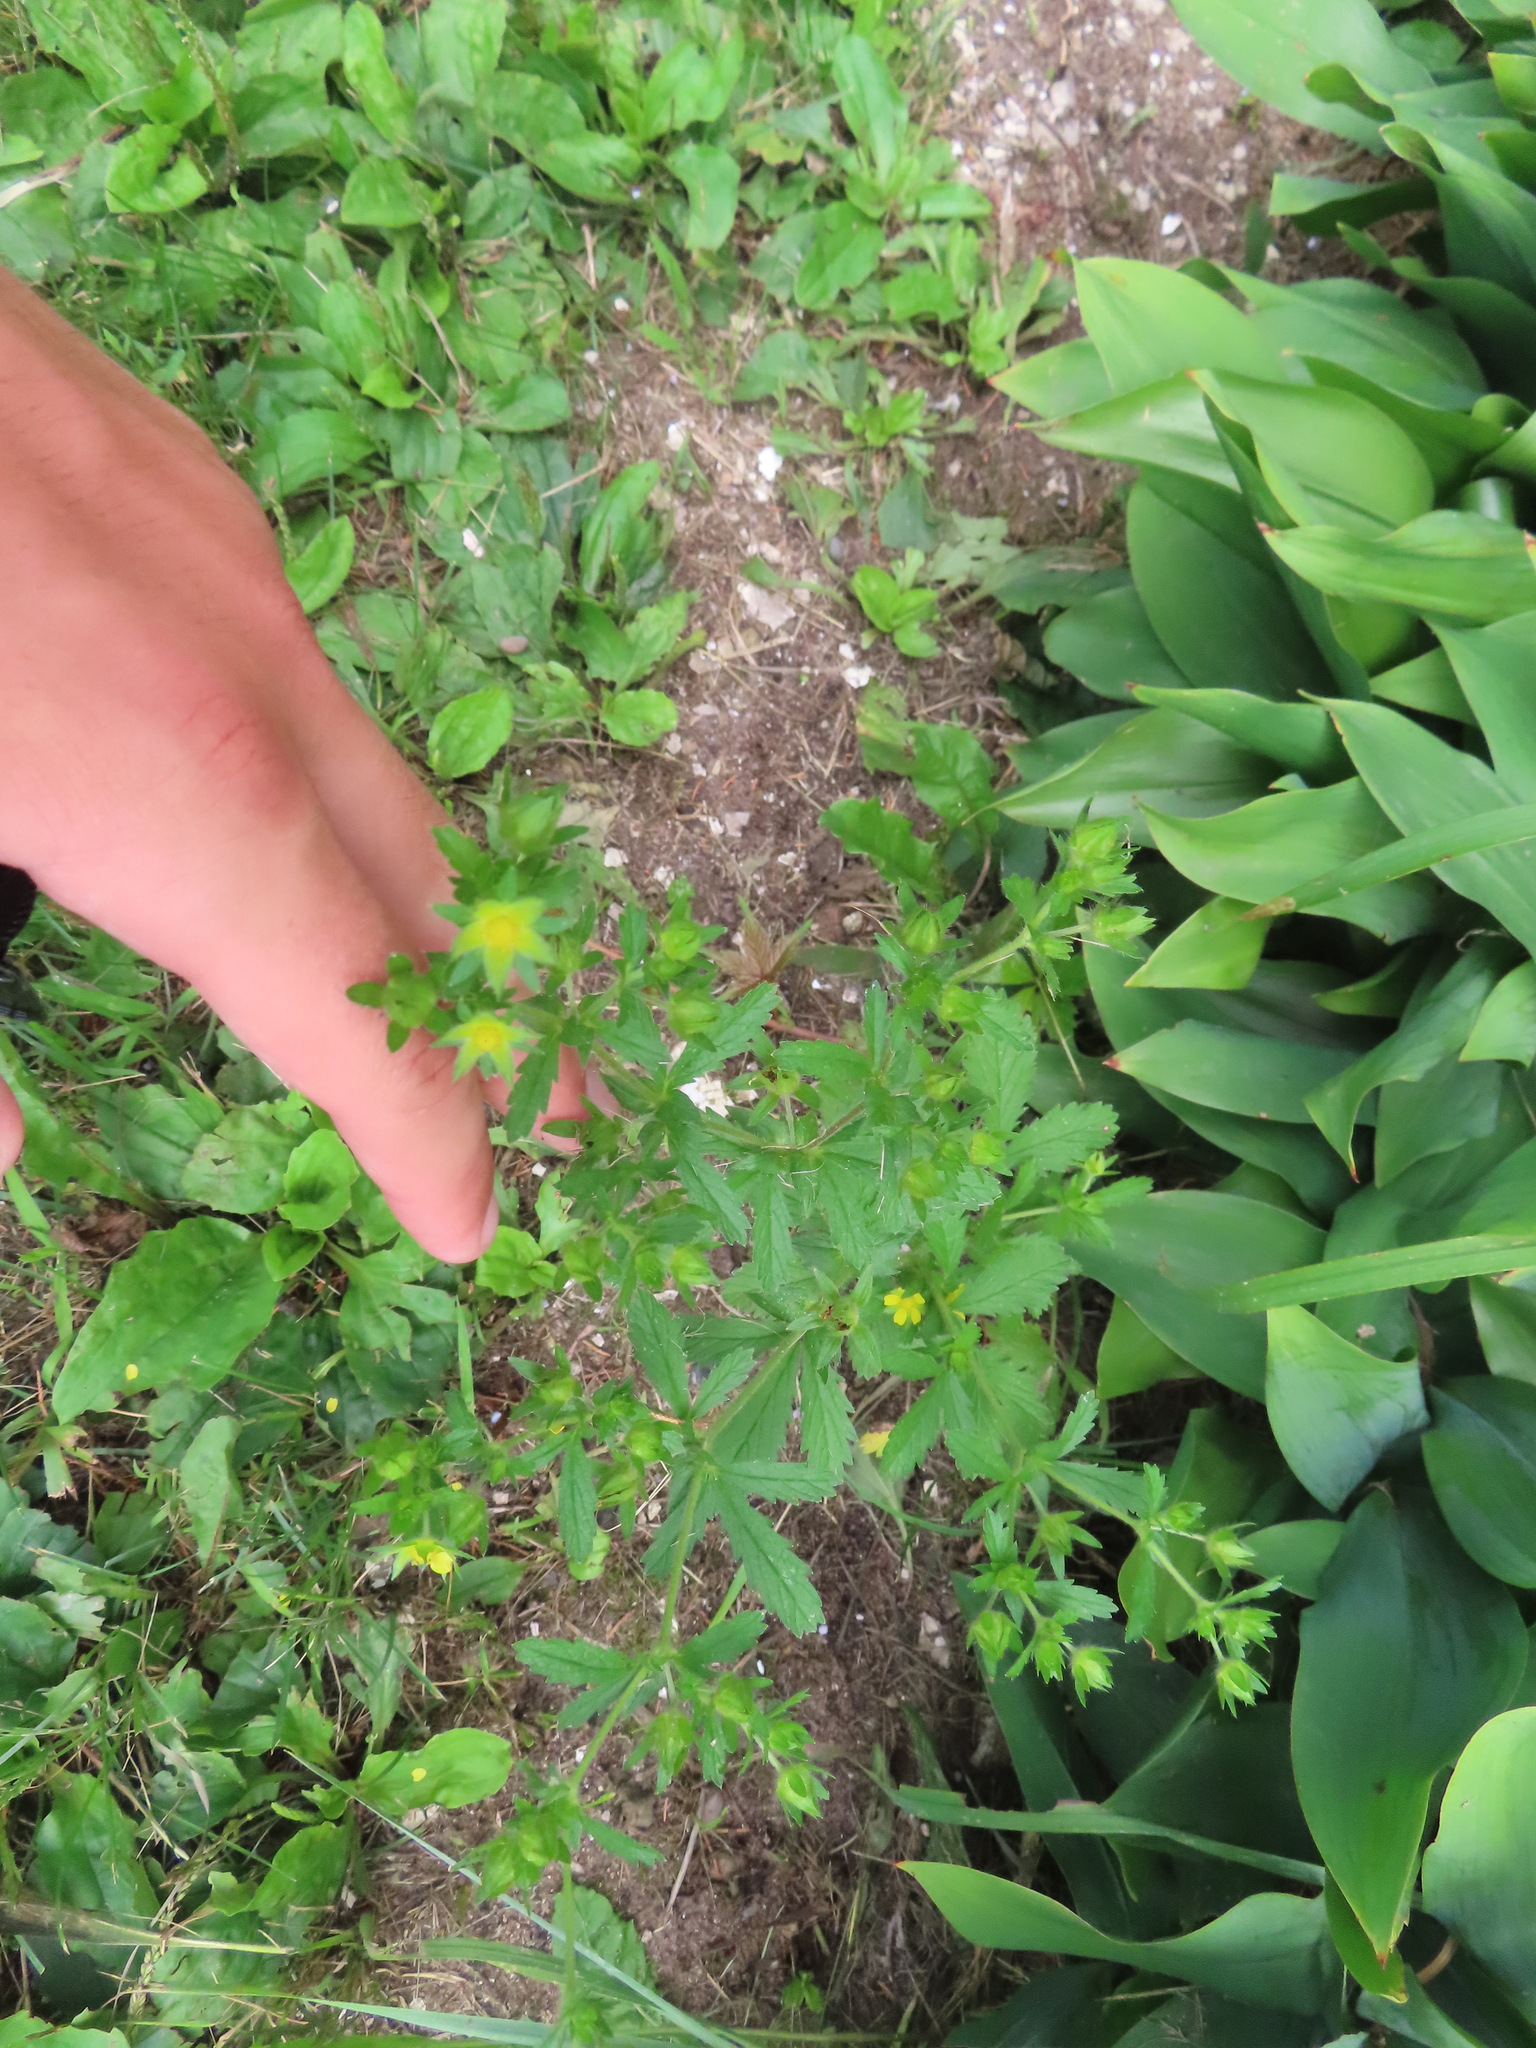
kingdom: Plantae
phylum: Tracheophyta
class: Magnoliopsida
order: Rosales
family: Rosaceae
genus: Potentilla
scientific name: Potentilla norvegica
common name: Ternate-leaved cinquefoil
